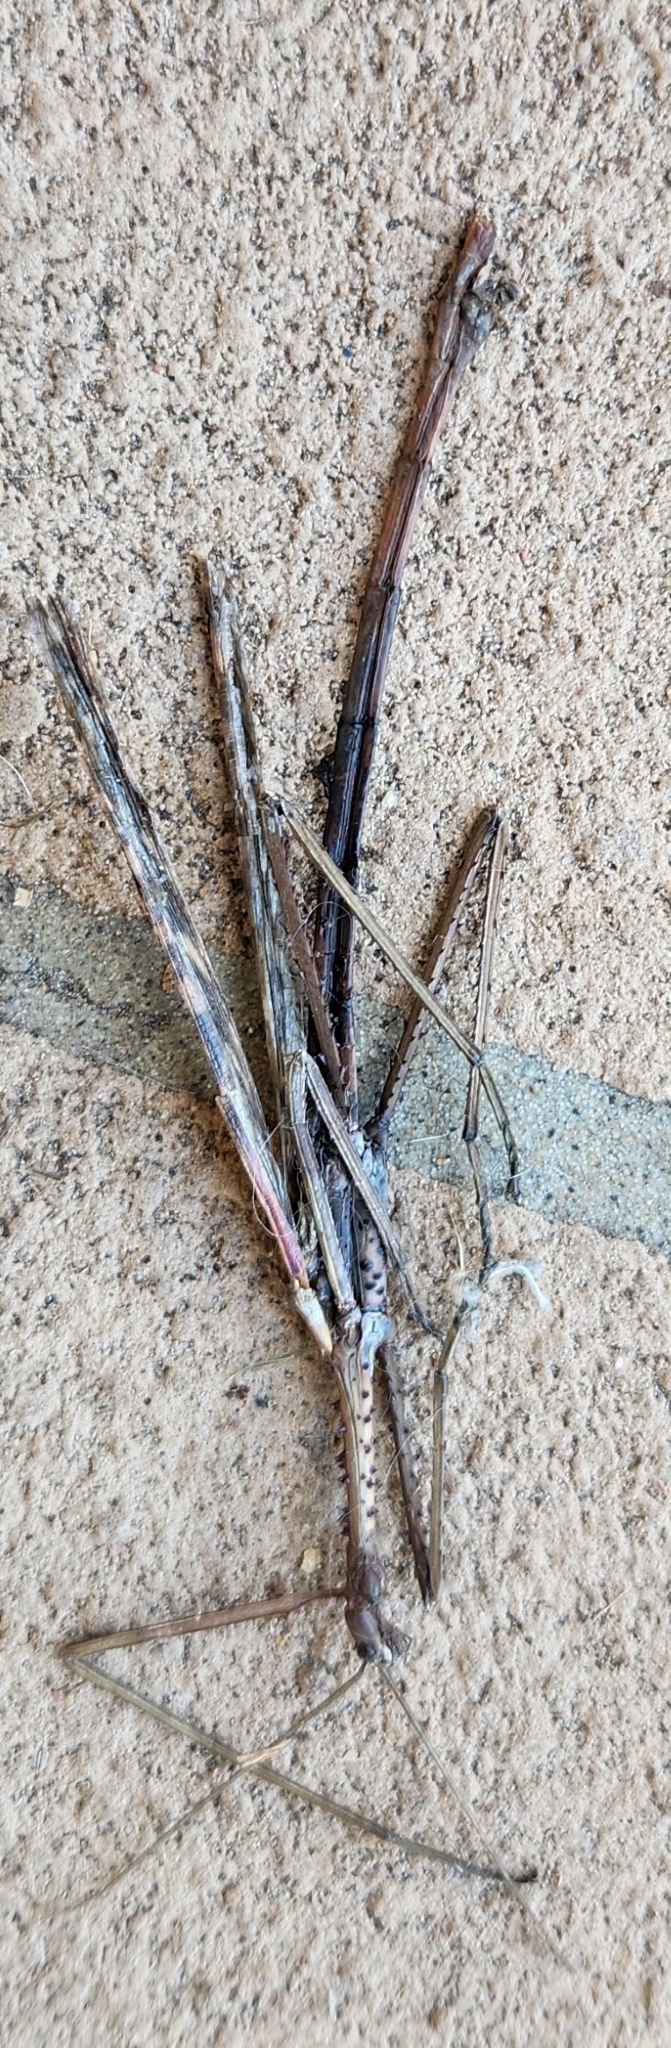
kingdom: Animalia
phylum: Arthropoda
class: Insecta
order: Phasmida
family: Phasmatidae
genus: Acrophylla
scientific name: Acrophylla titan
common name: Titan stick insect
